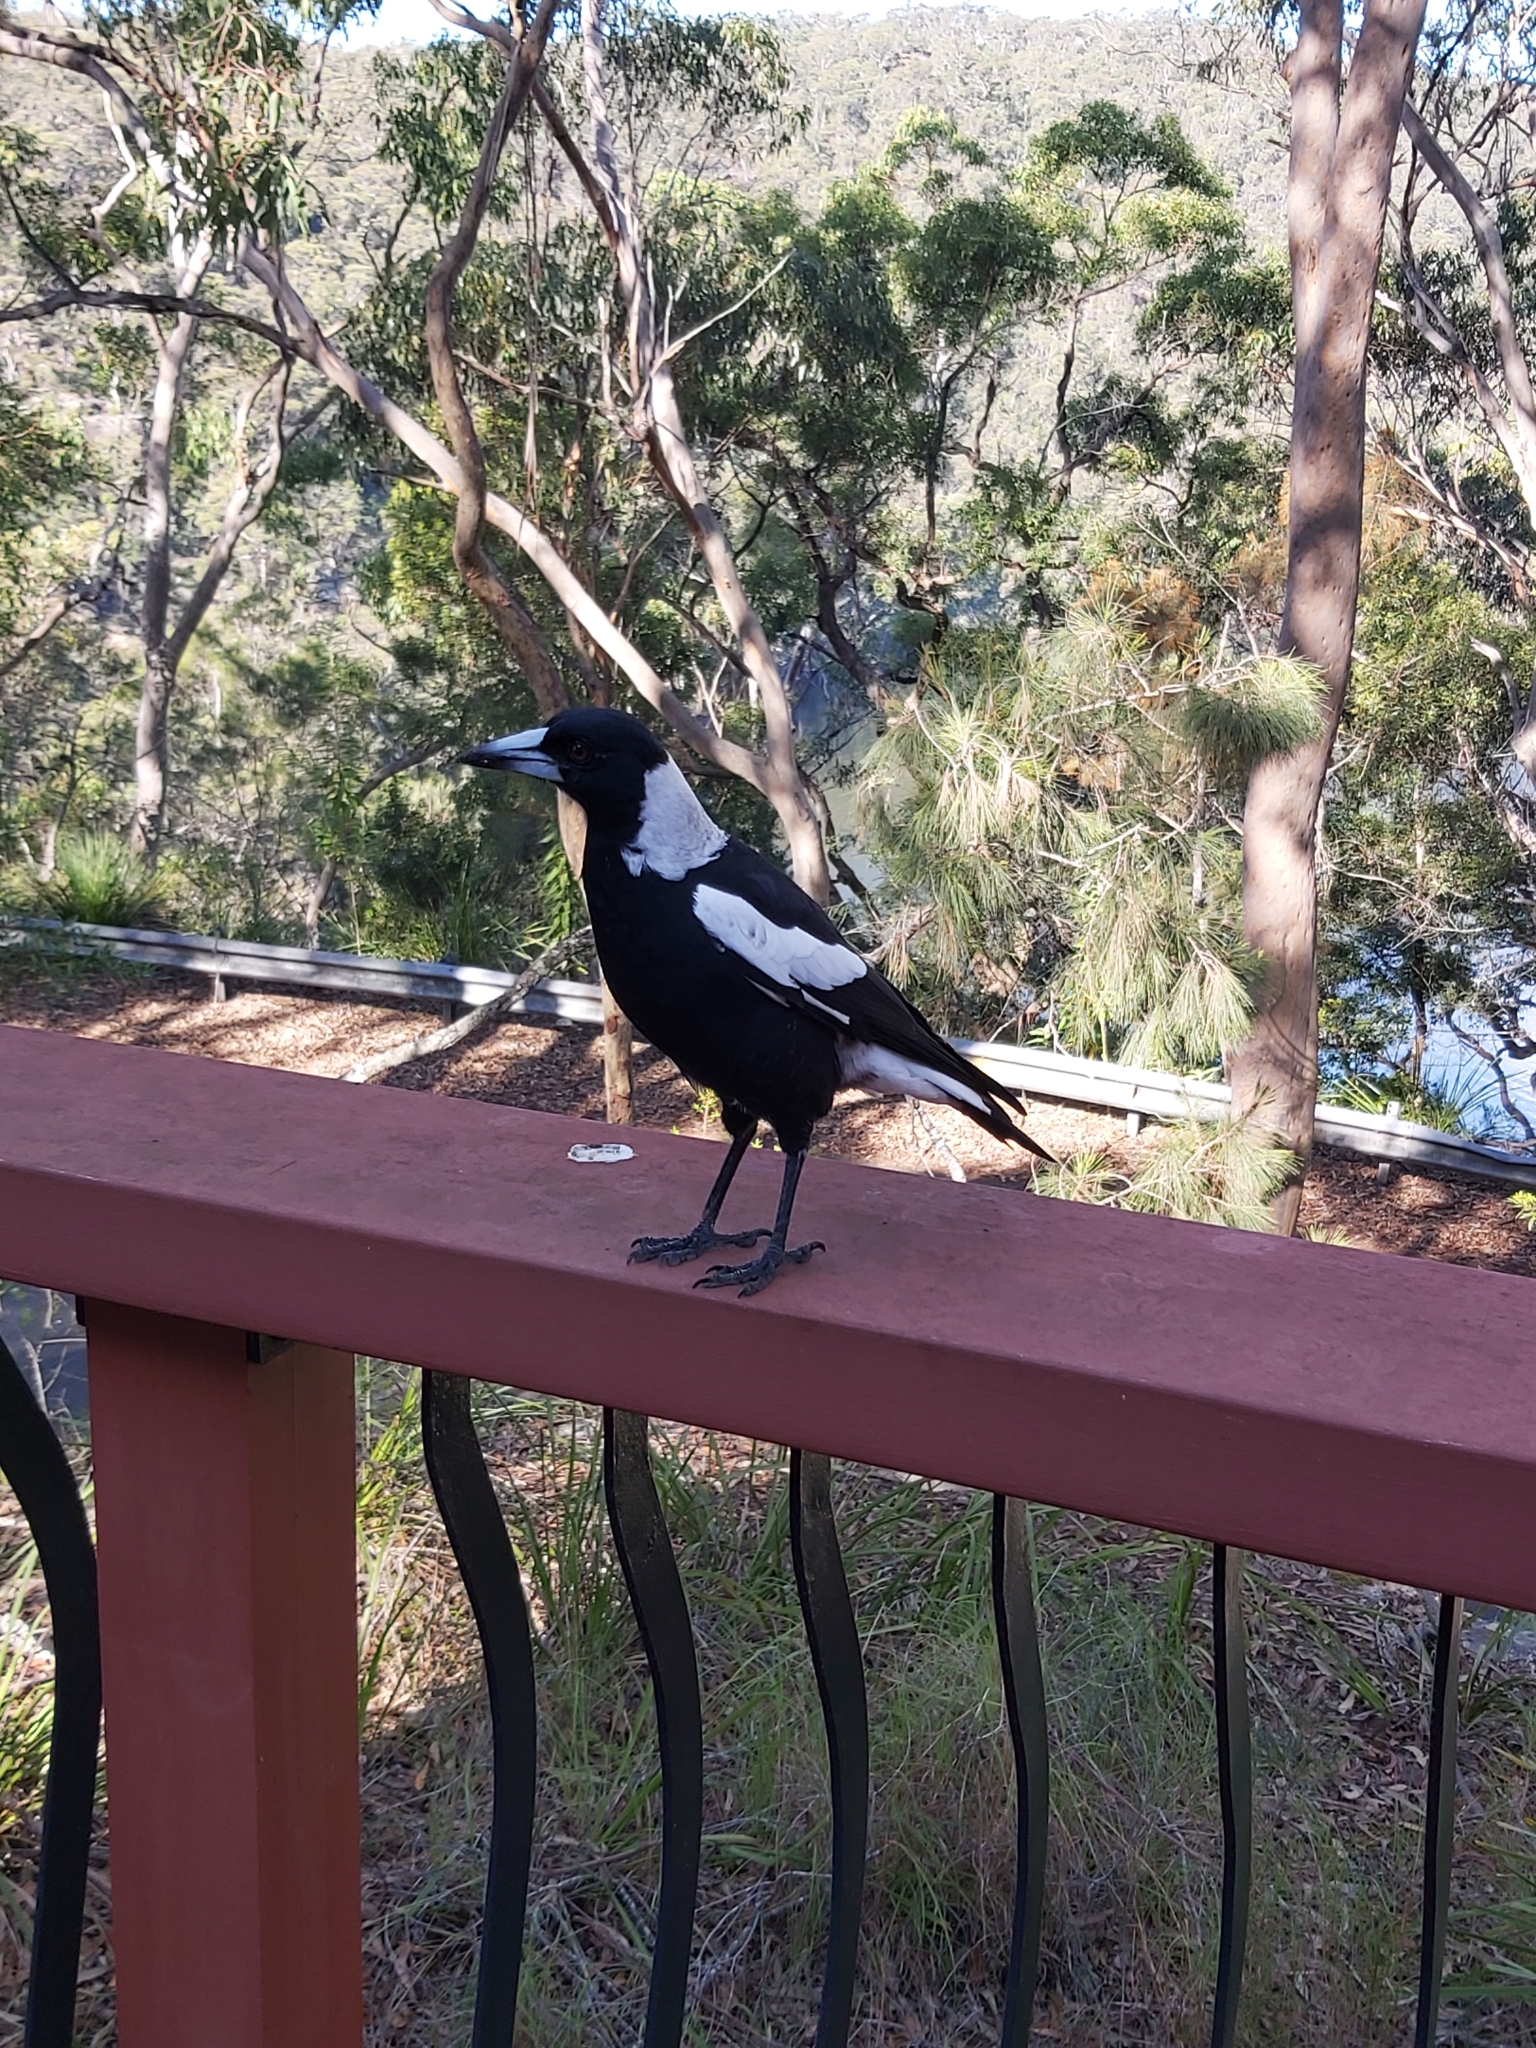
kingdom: Animalia
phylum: Chordata
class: Aves
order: Passeriformes
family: Cracticidae
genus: Gymnorhina
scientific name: Gymnorhina tibicen
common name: Australian magpie
